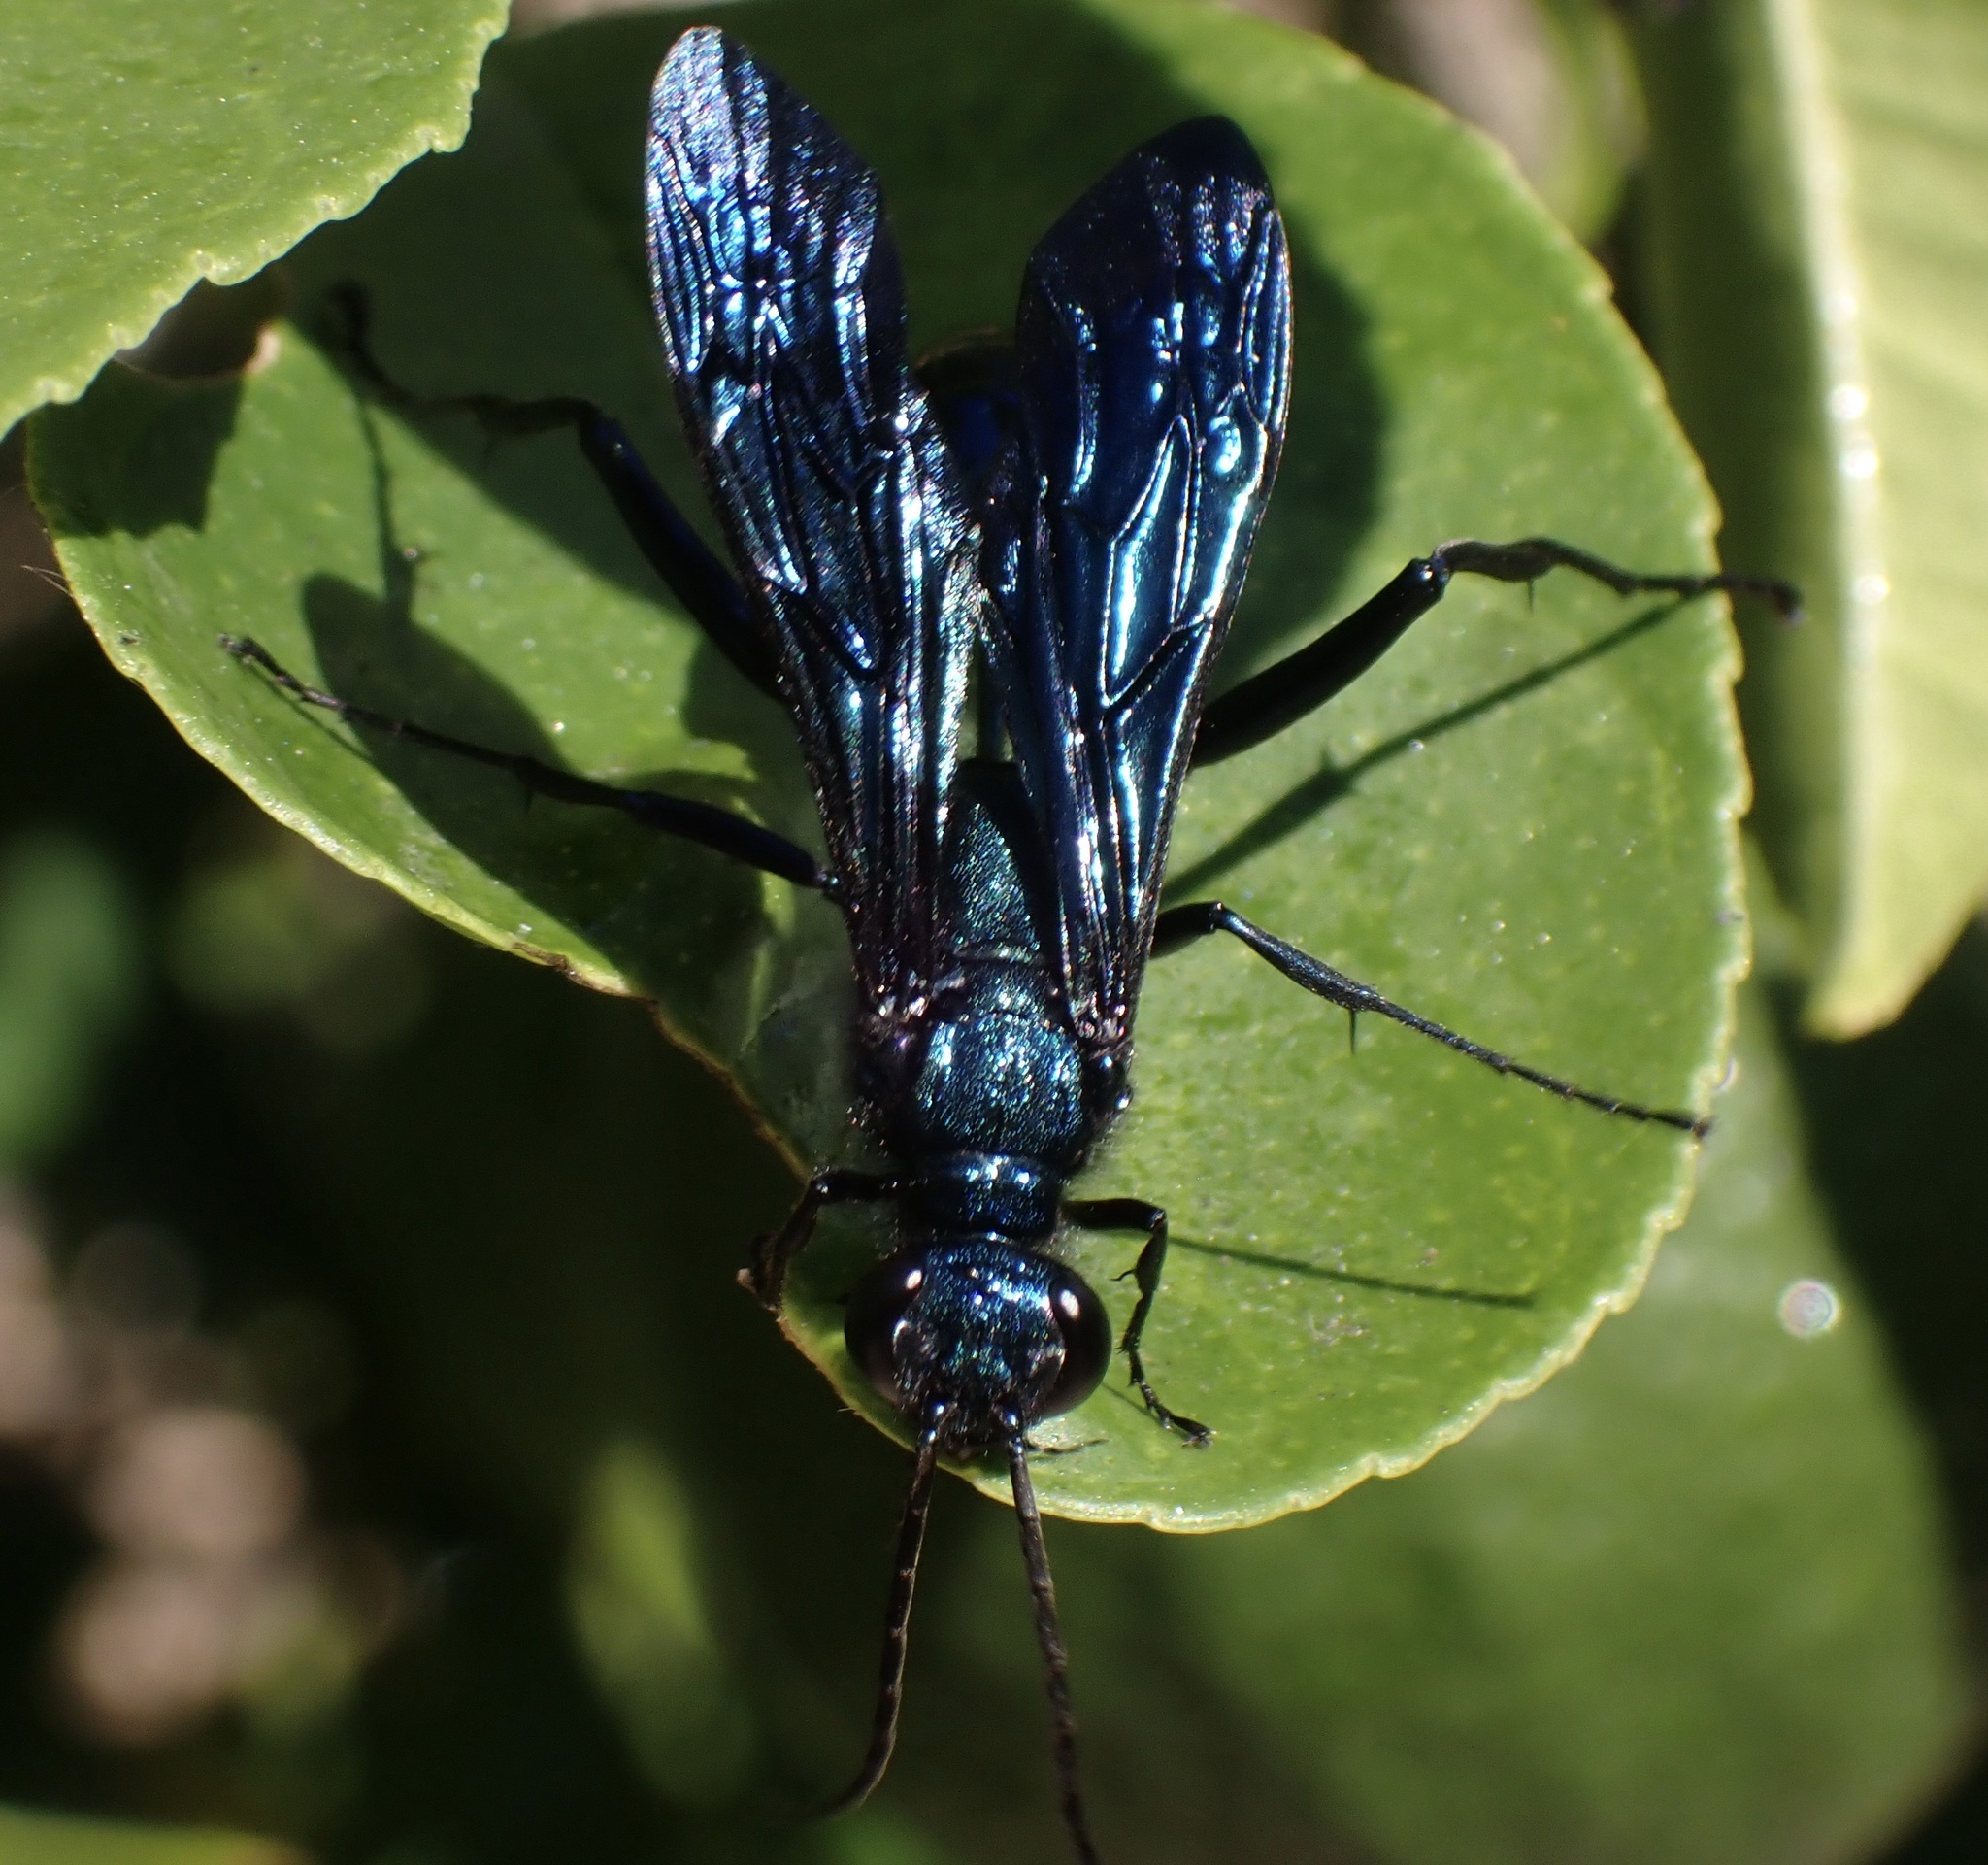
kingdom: Animalia
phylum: Arthropoda
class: Insecta
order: Hymenoptera
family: Sphecidae
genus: Chalybion
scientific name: Chalybion californicum
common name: Mud dauber
